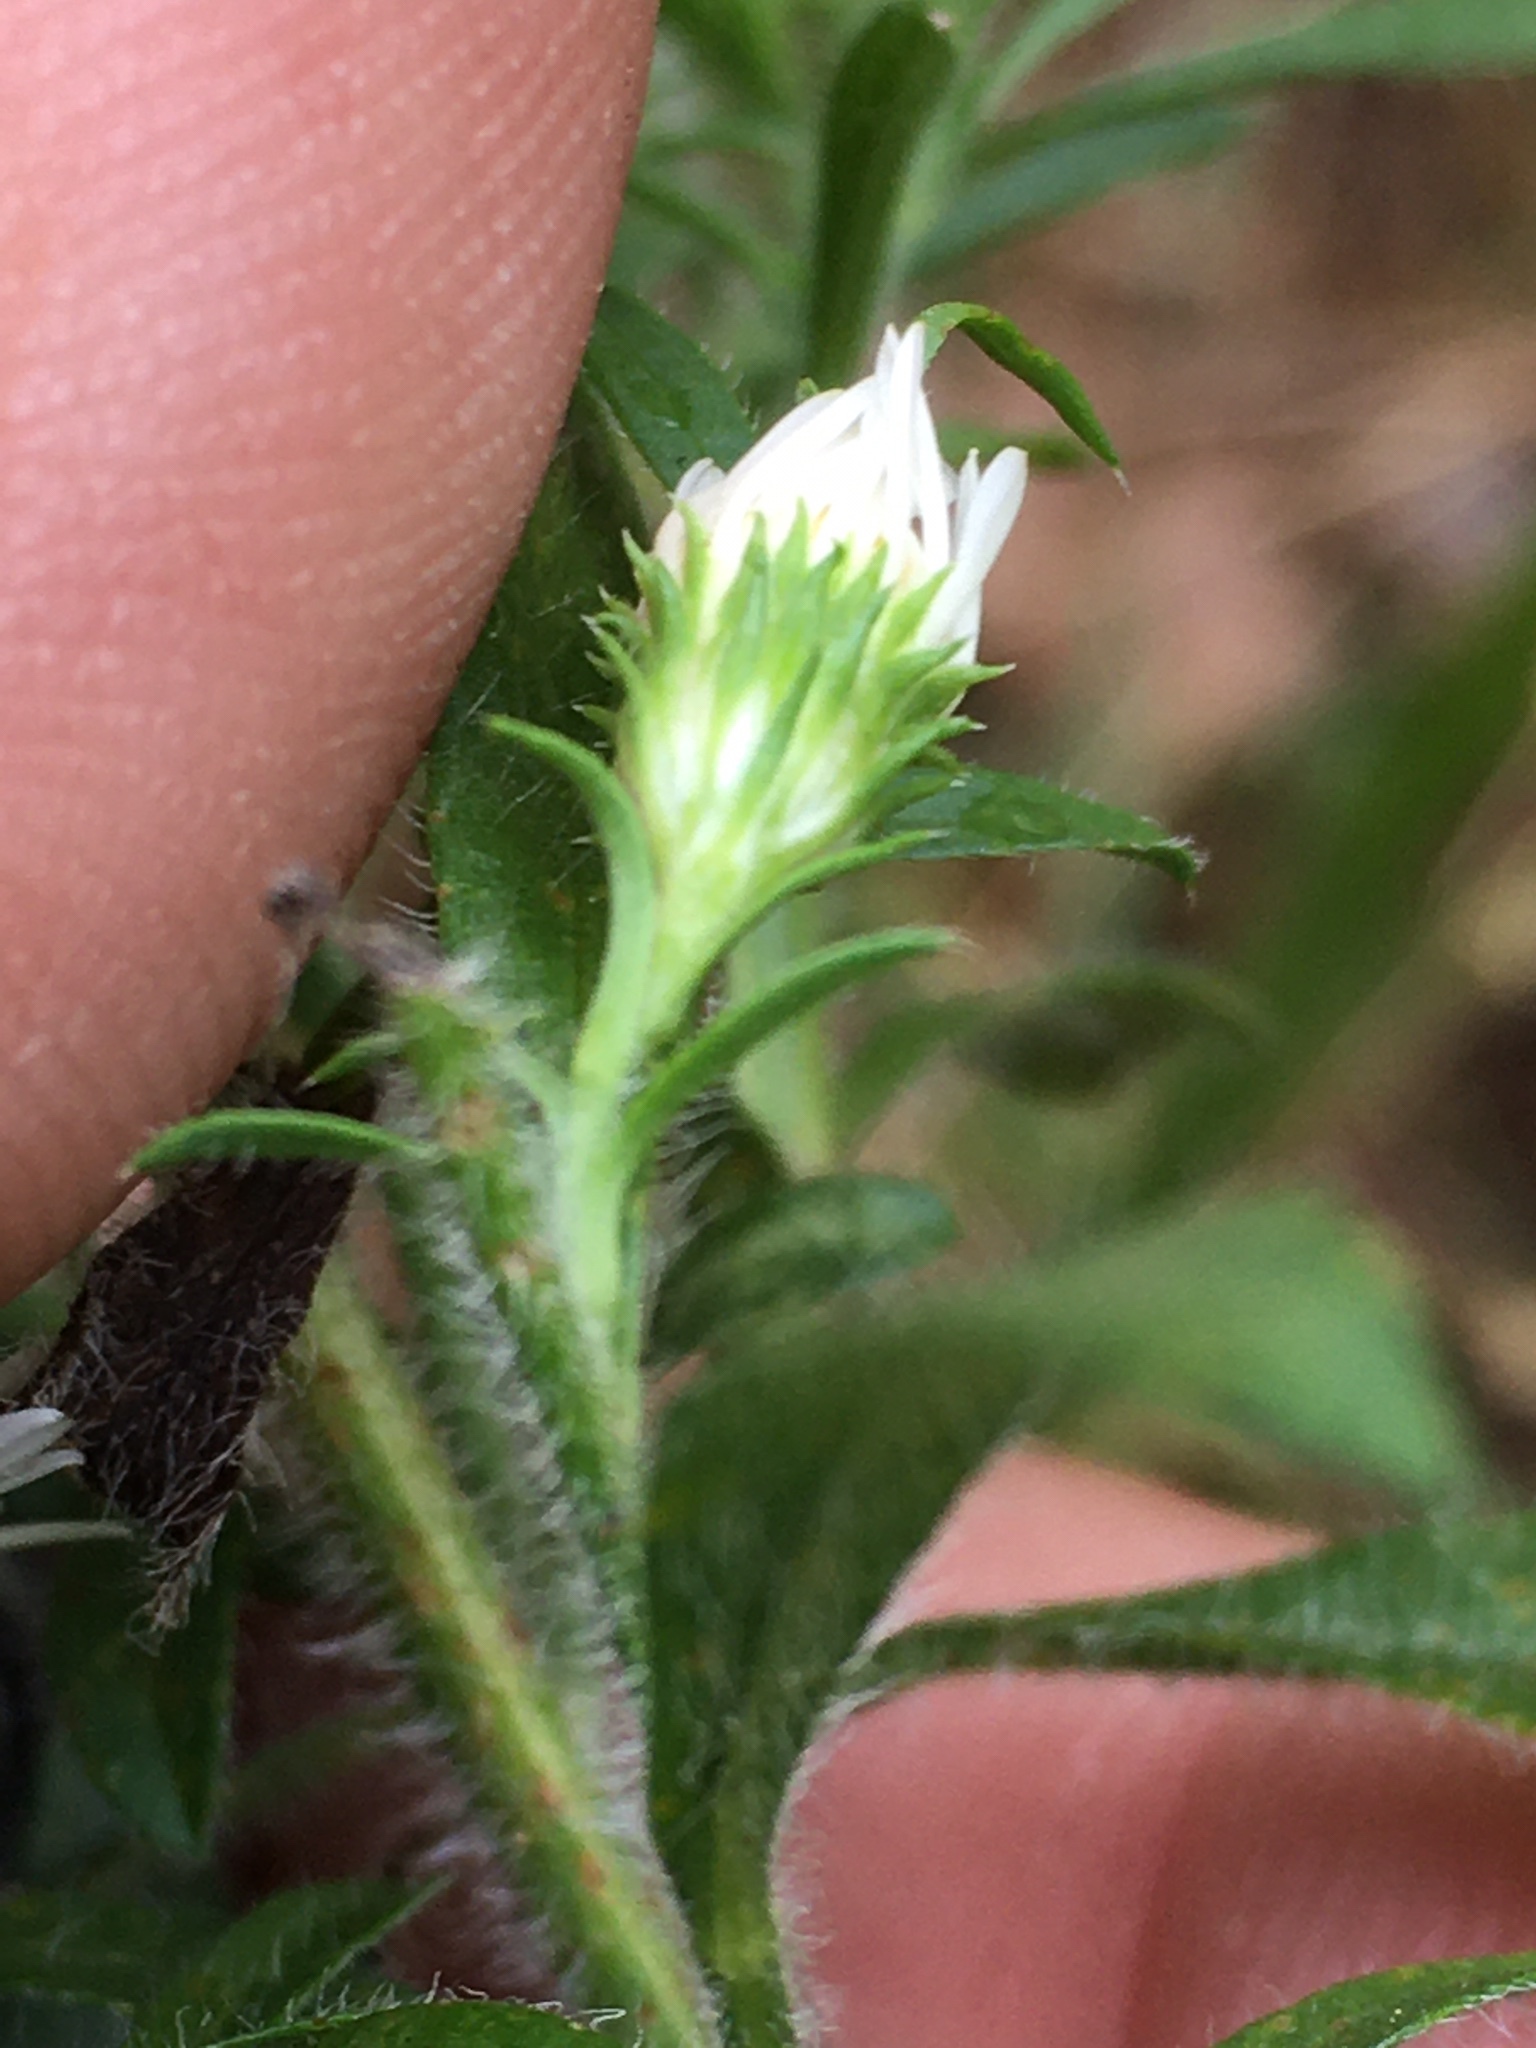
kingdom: Plantae
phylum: Tracheophyta
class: Magnoliopsida
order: Asterales
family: Asteraceae
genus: Symphyotrichum
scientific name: Symphyotrichum pilosum
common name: Awl aster
